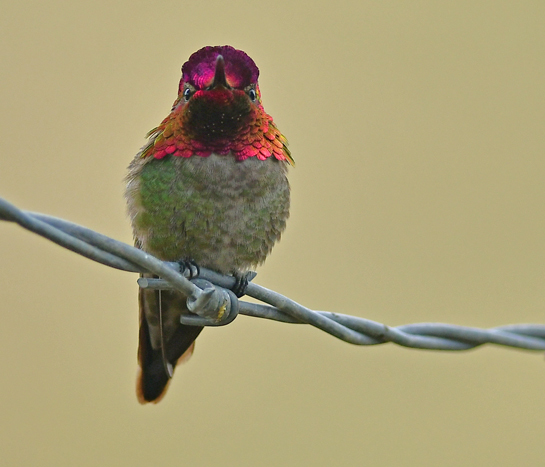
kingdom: Animalia
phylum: Chordata
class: Aves
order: Apodiformes
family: Trochilidae
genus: Calypte
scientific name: Calypte anna
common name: Anna's hummingbird
